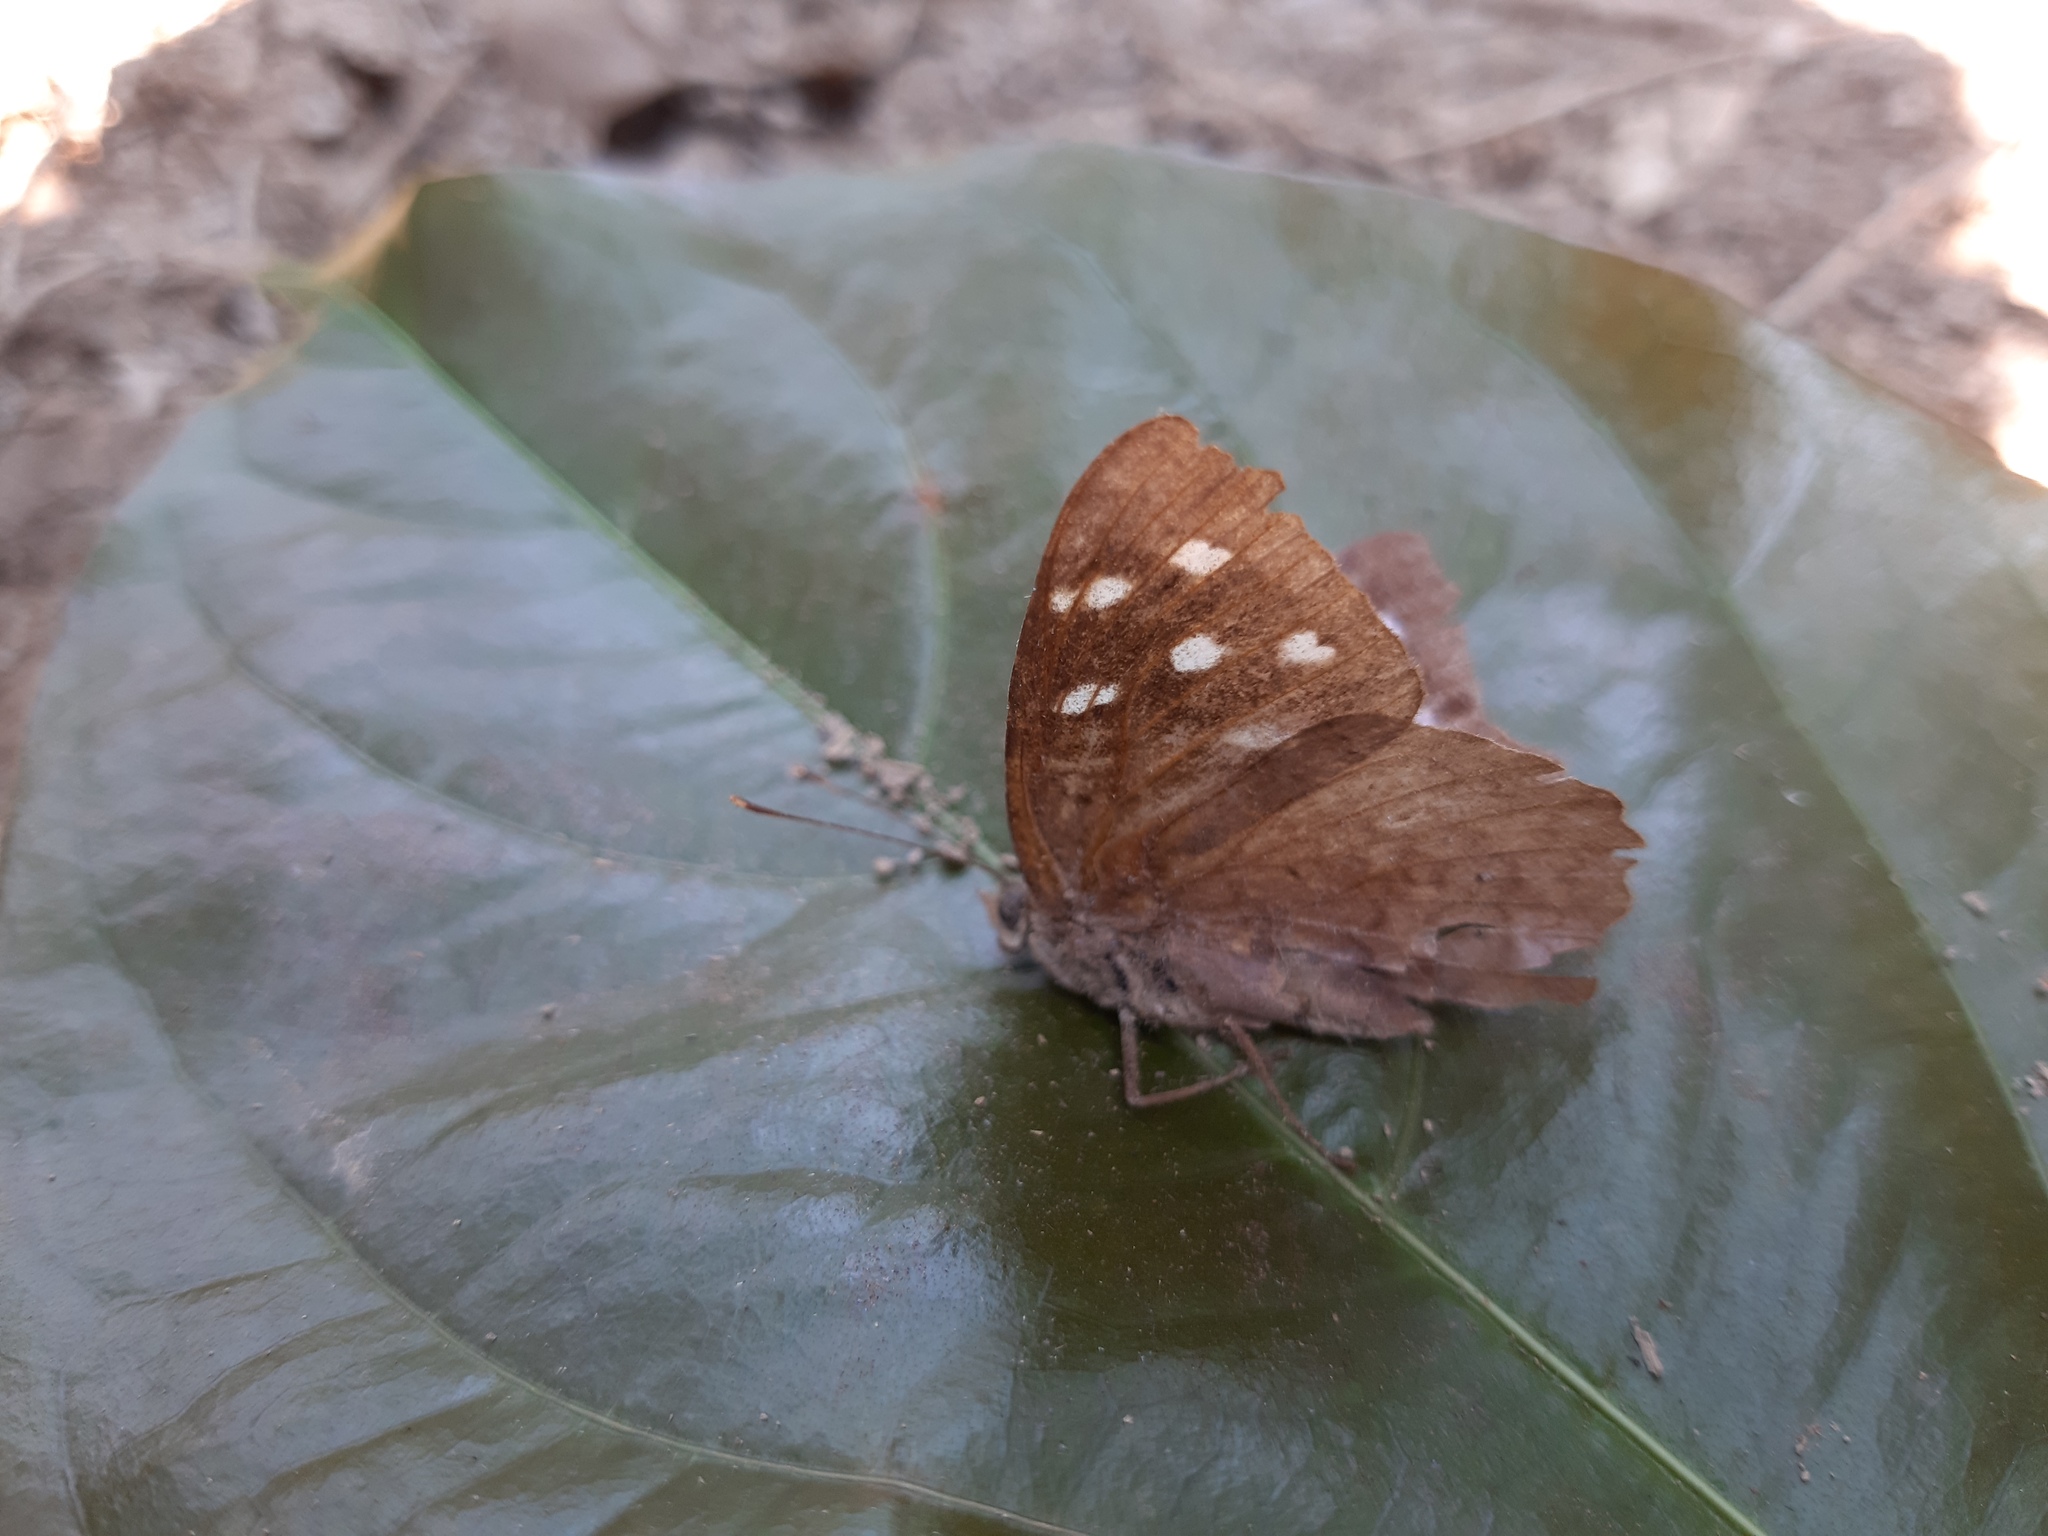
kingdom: Animalia
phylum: Arthropoda
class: Insecta
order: Lepidoptera
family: Nymphalidae
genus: Eunica
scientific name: Eunica tatila
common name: Florida purplewing
